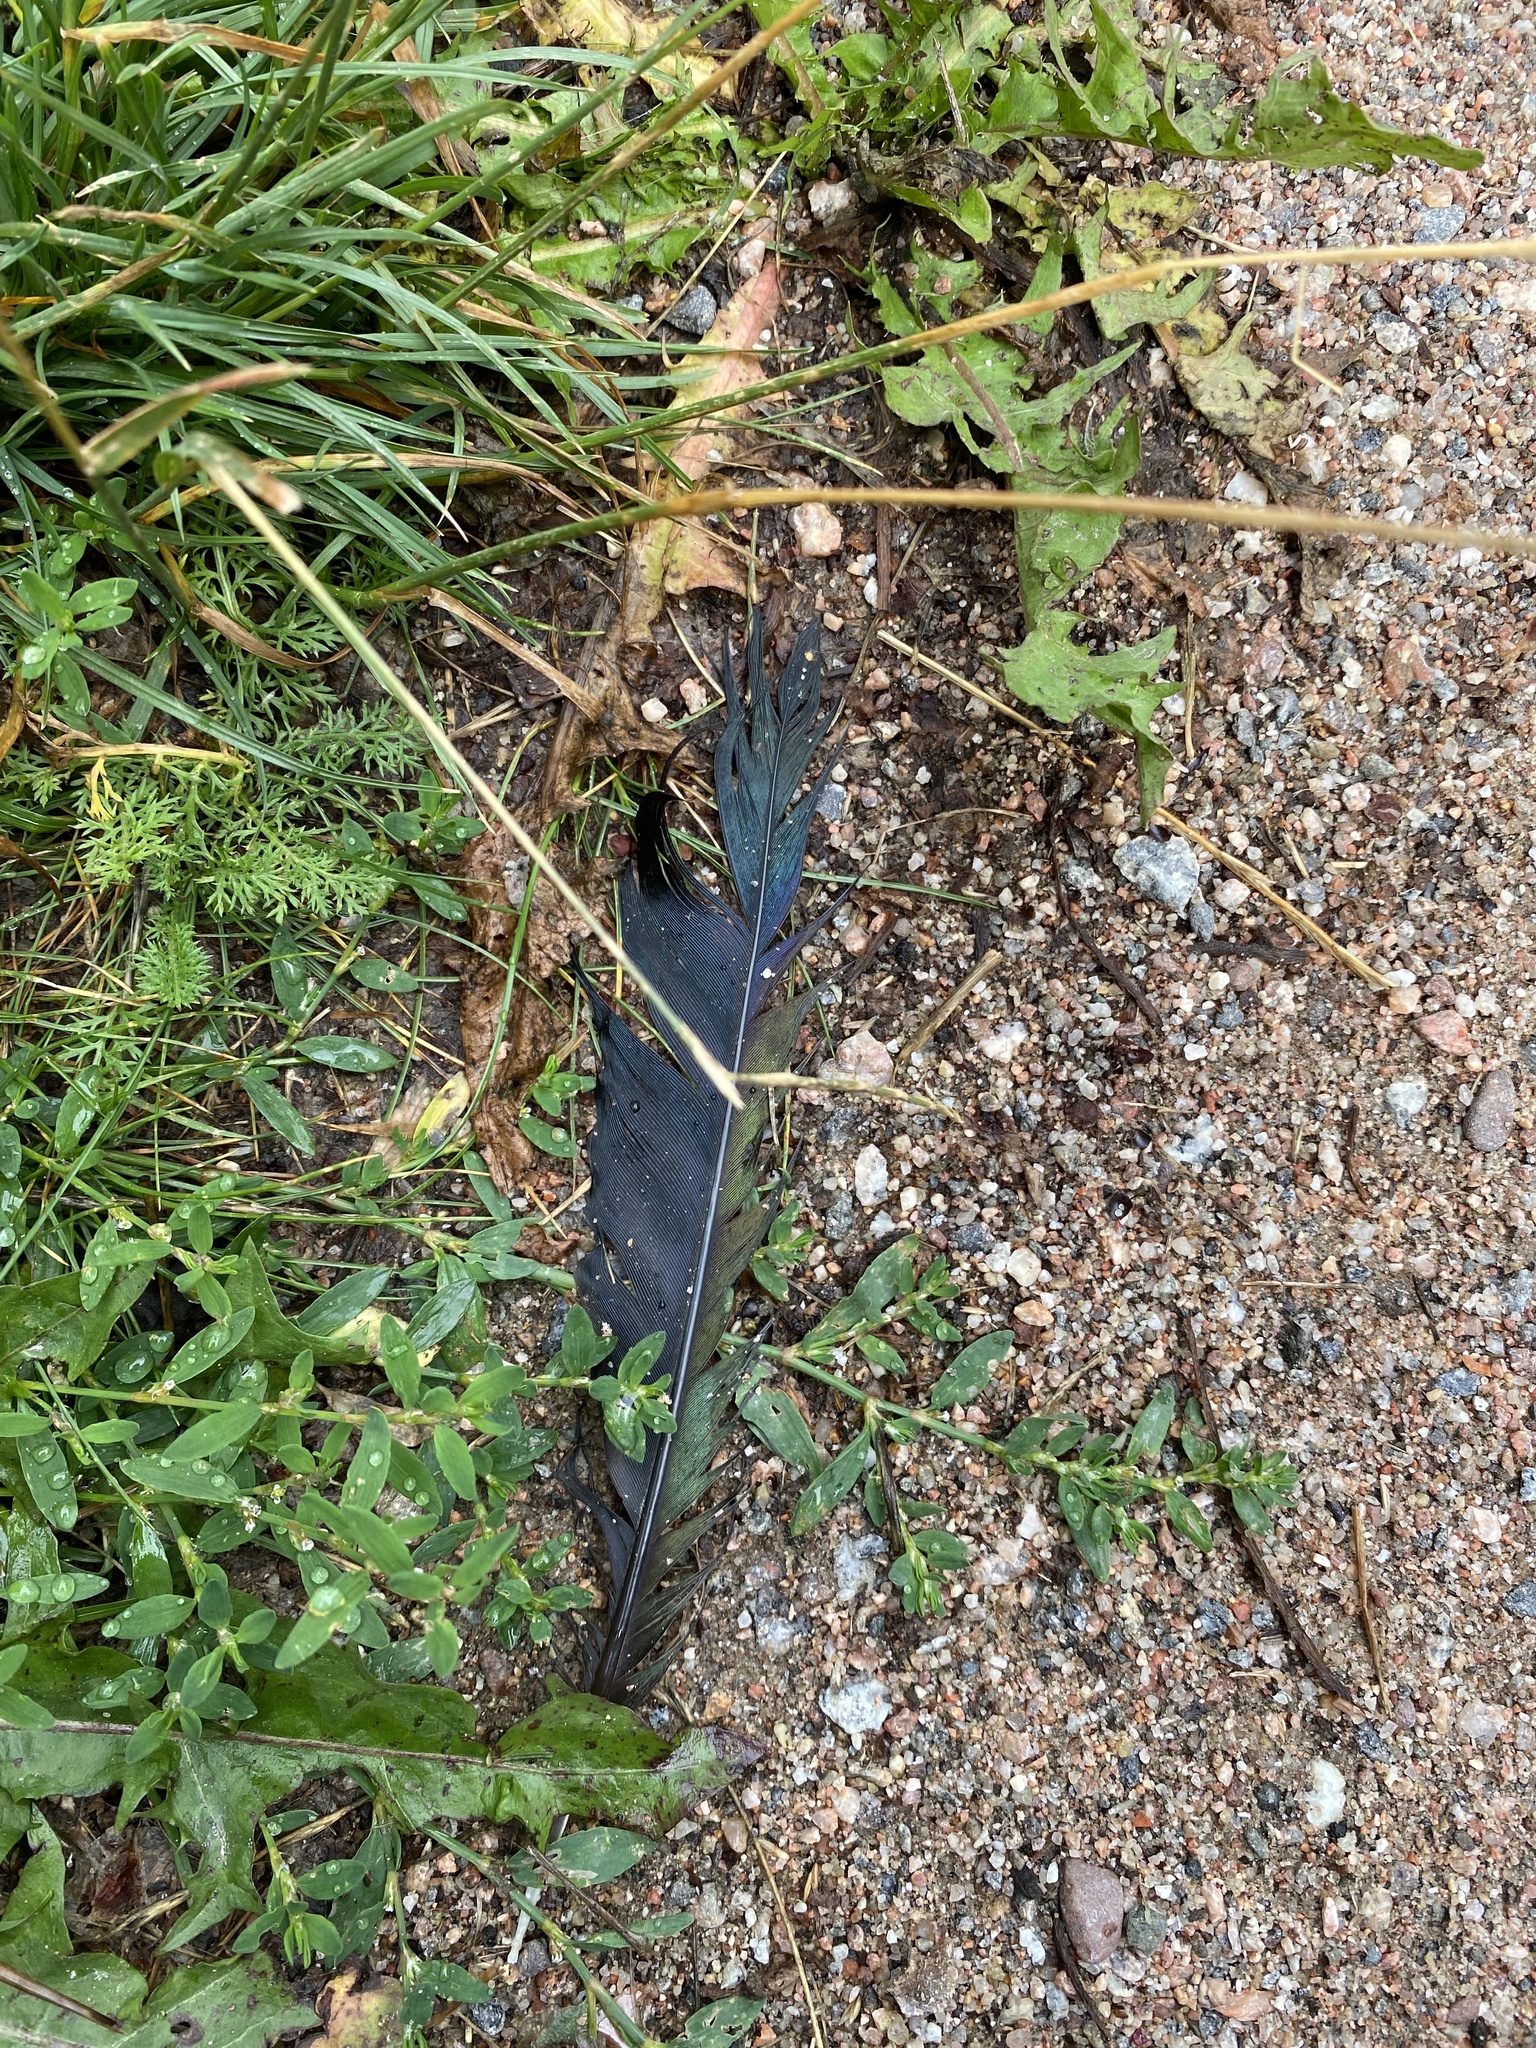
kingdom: Animalia
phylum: Chordata
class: Aves
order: Passeriformes
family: Corvidae
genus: Pica
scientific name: Pica pica
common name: Eurasian magpie
